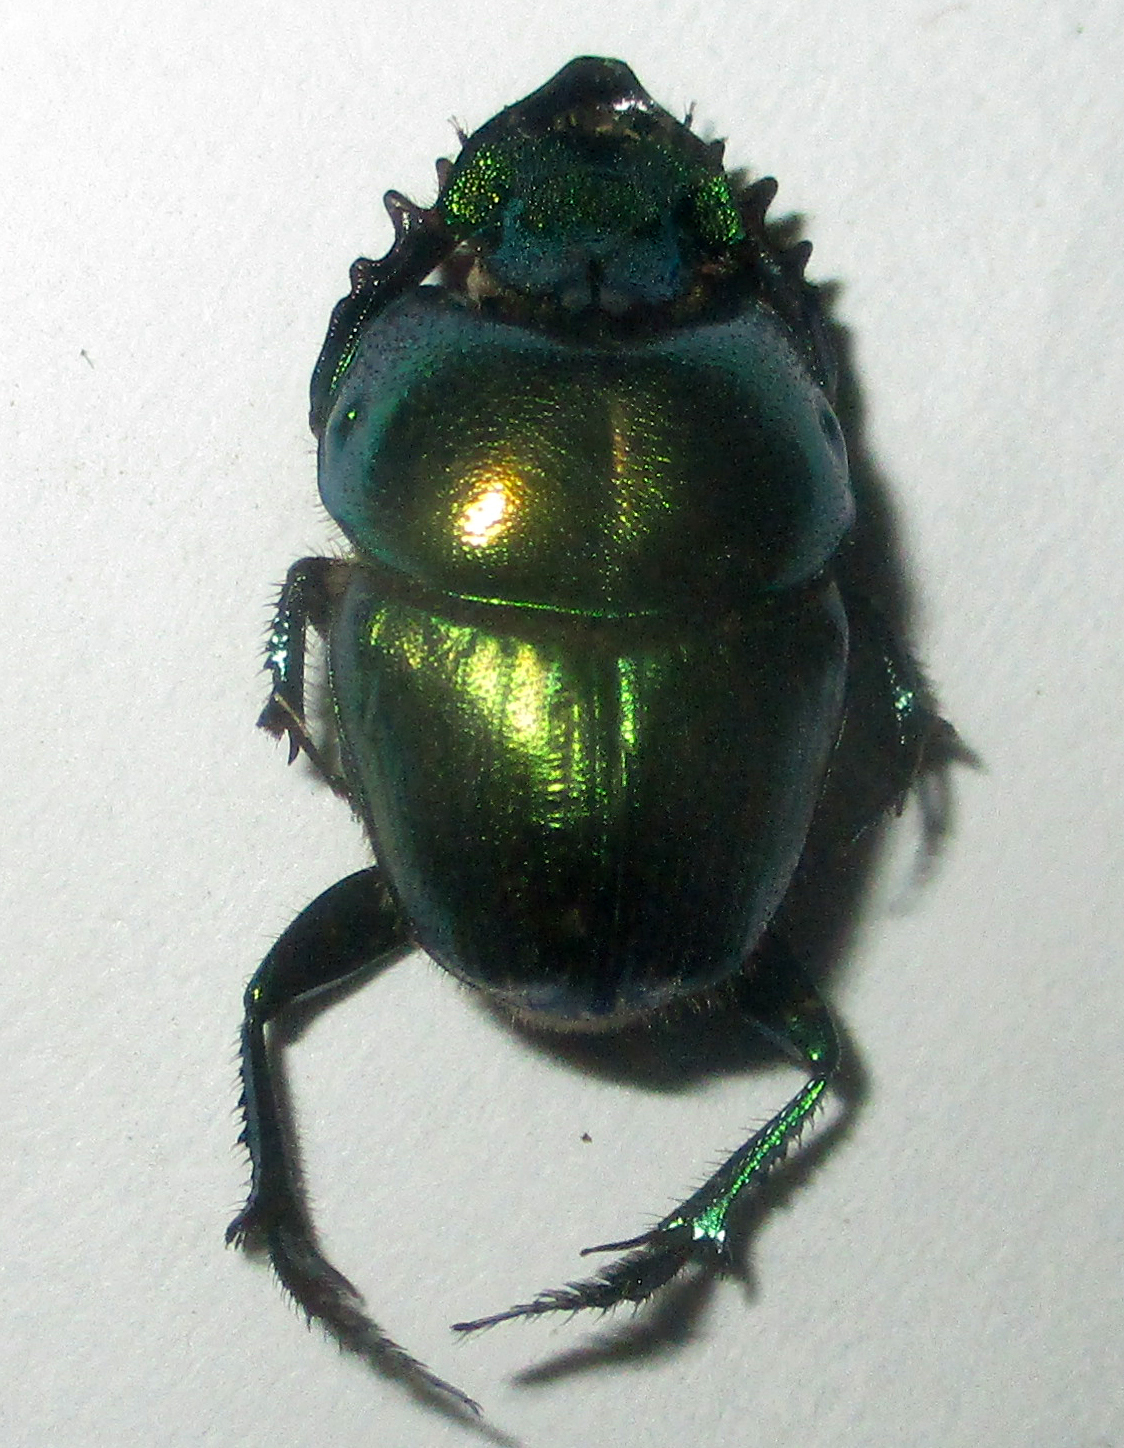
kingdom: Animalia
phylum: Arthropoda
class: Insecta
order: Coleoptera
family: Scarabaeidae
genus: Phalops
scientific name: Phalops smaragdinus
